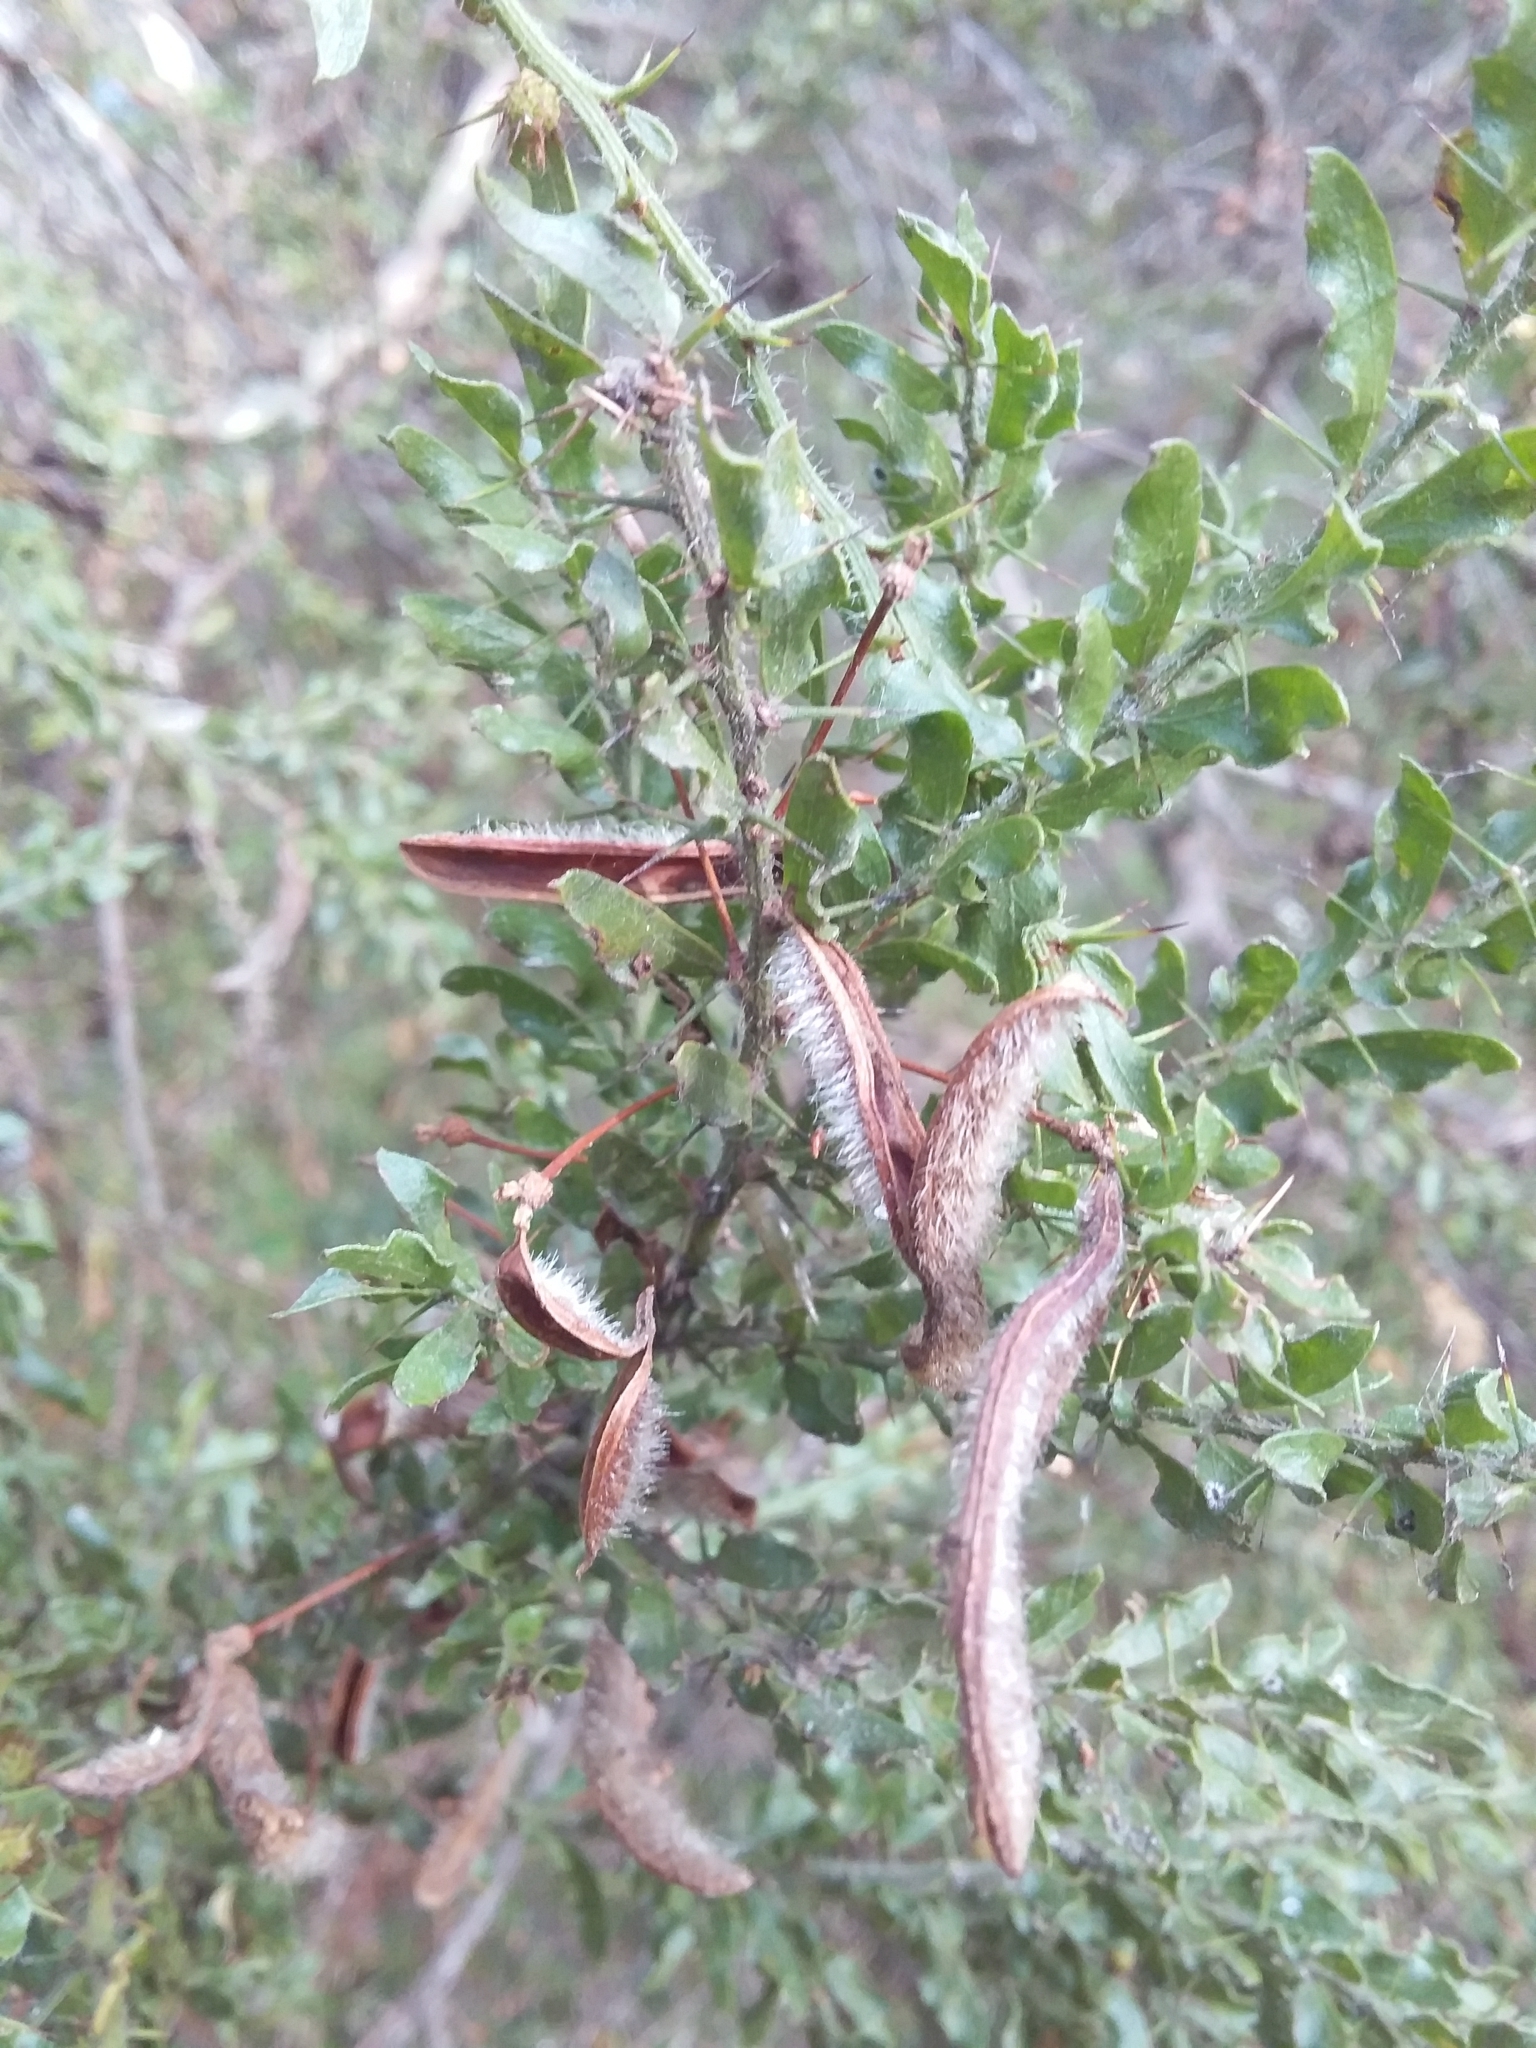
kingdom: Plantae
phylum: Tracheophyta
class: Magnoliopsida
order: Fabales
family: Fabaceae
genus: Acacia
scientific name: Acacia paradoxa
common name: Paradox acacia
